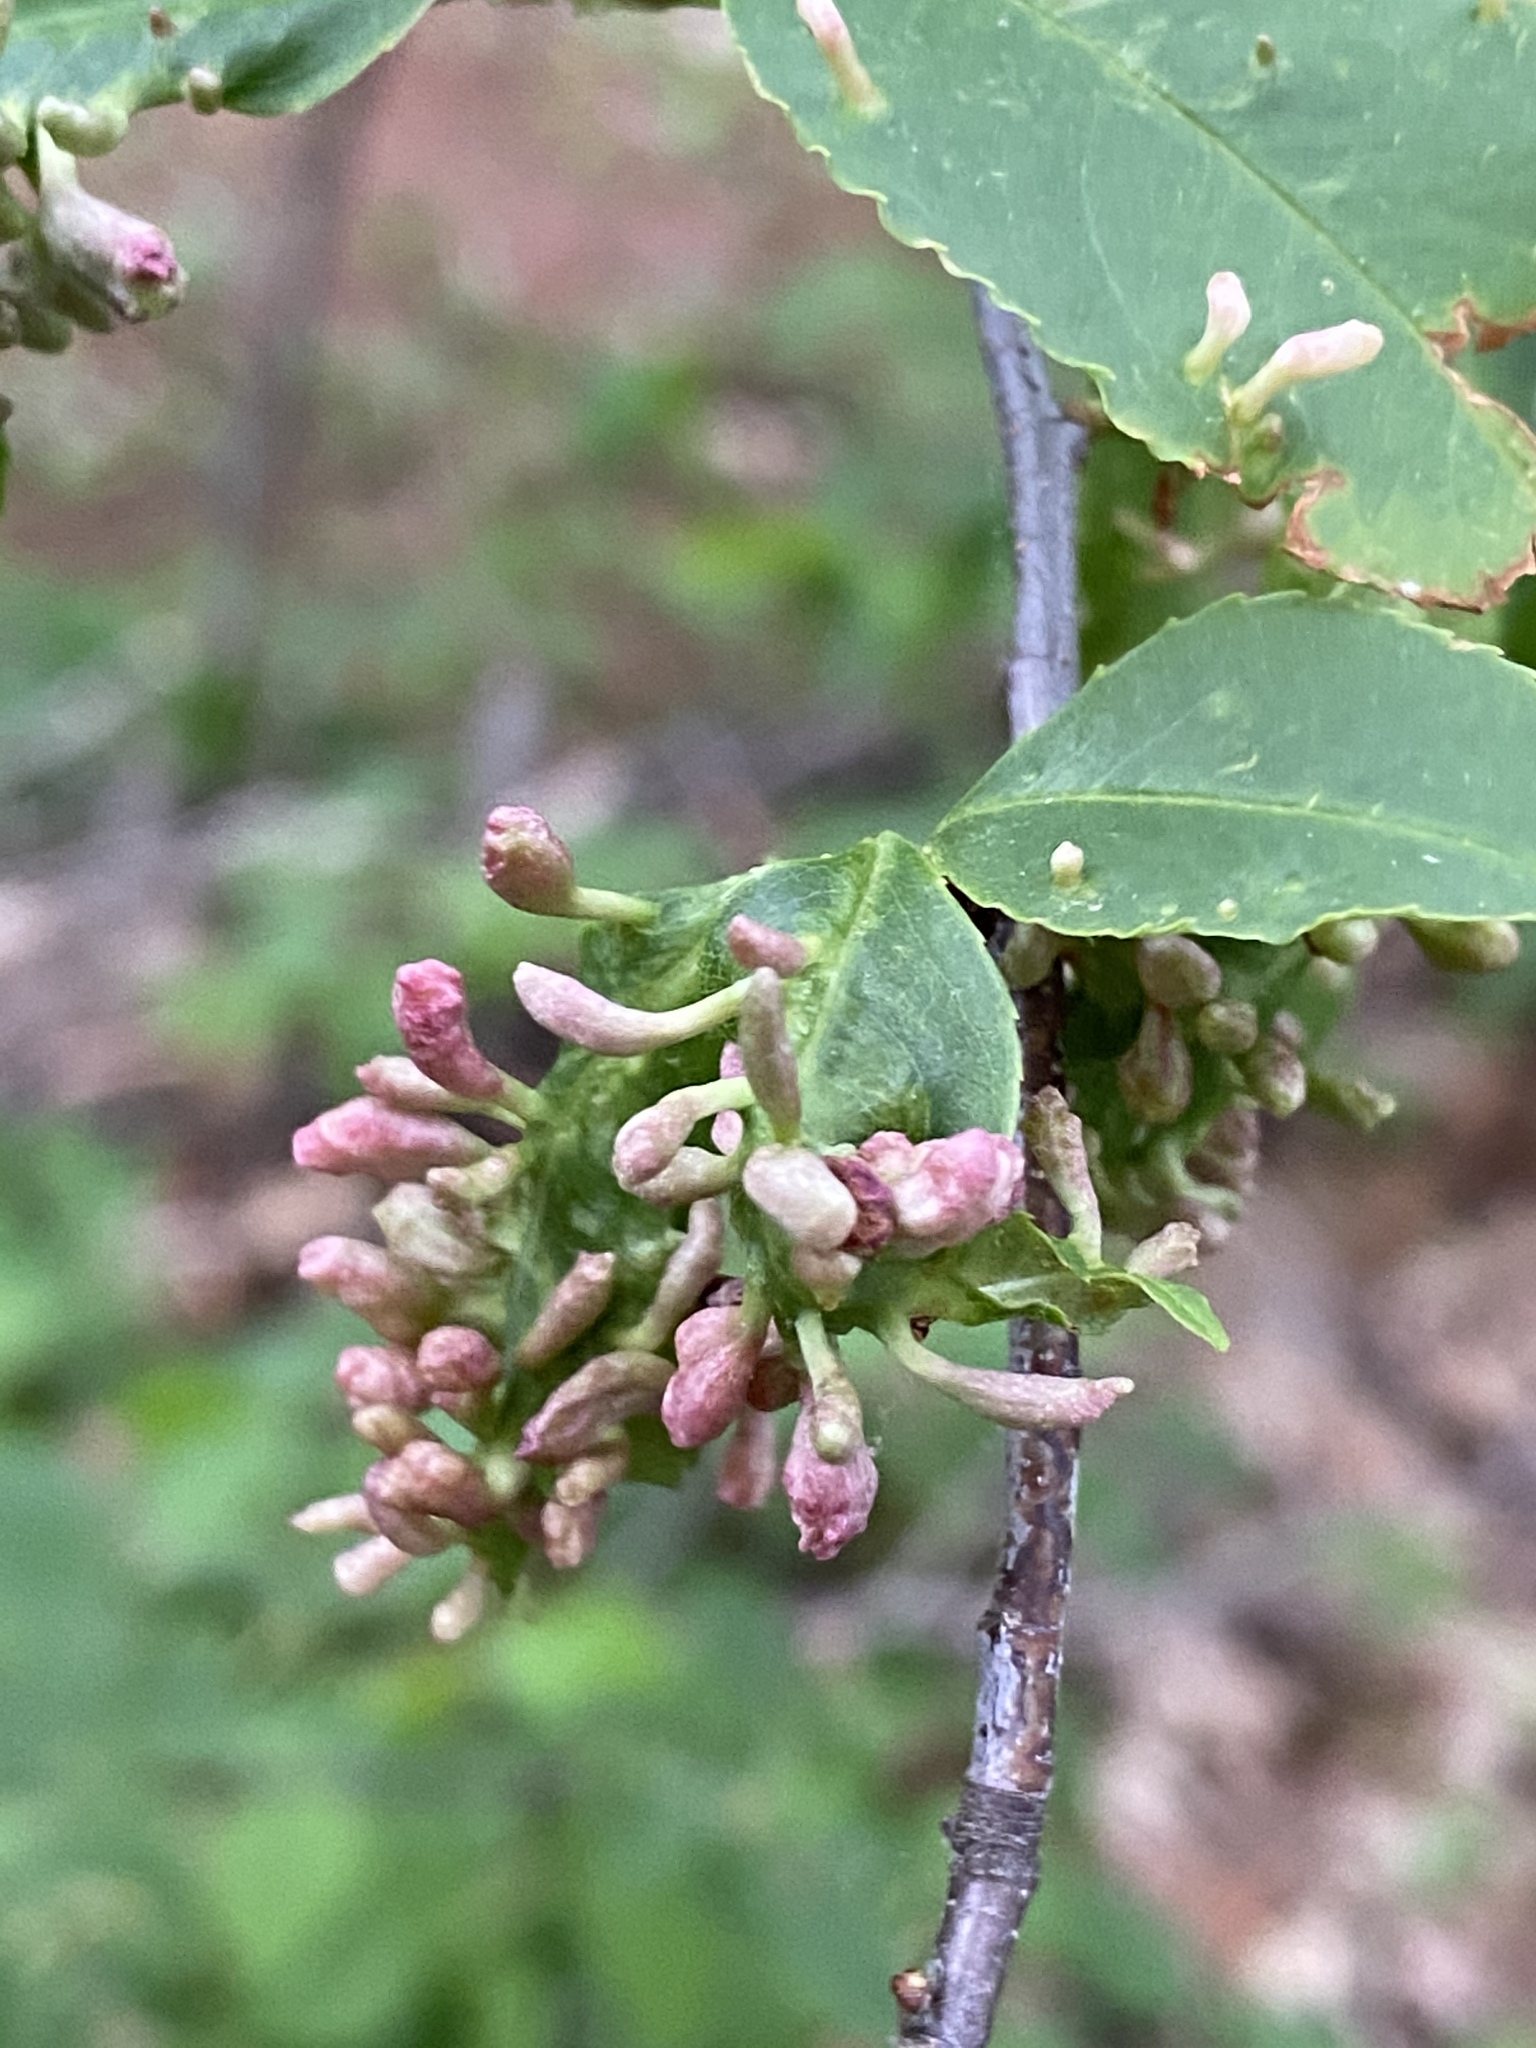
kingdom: Animalia
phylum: Arthropoda
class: Arachnida
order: Trombidiformes
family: Eriophyidae
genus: Eriophyes
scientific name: Eriophyes
